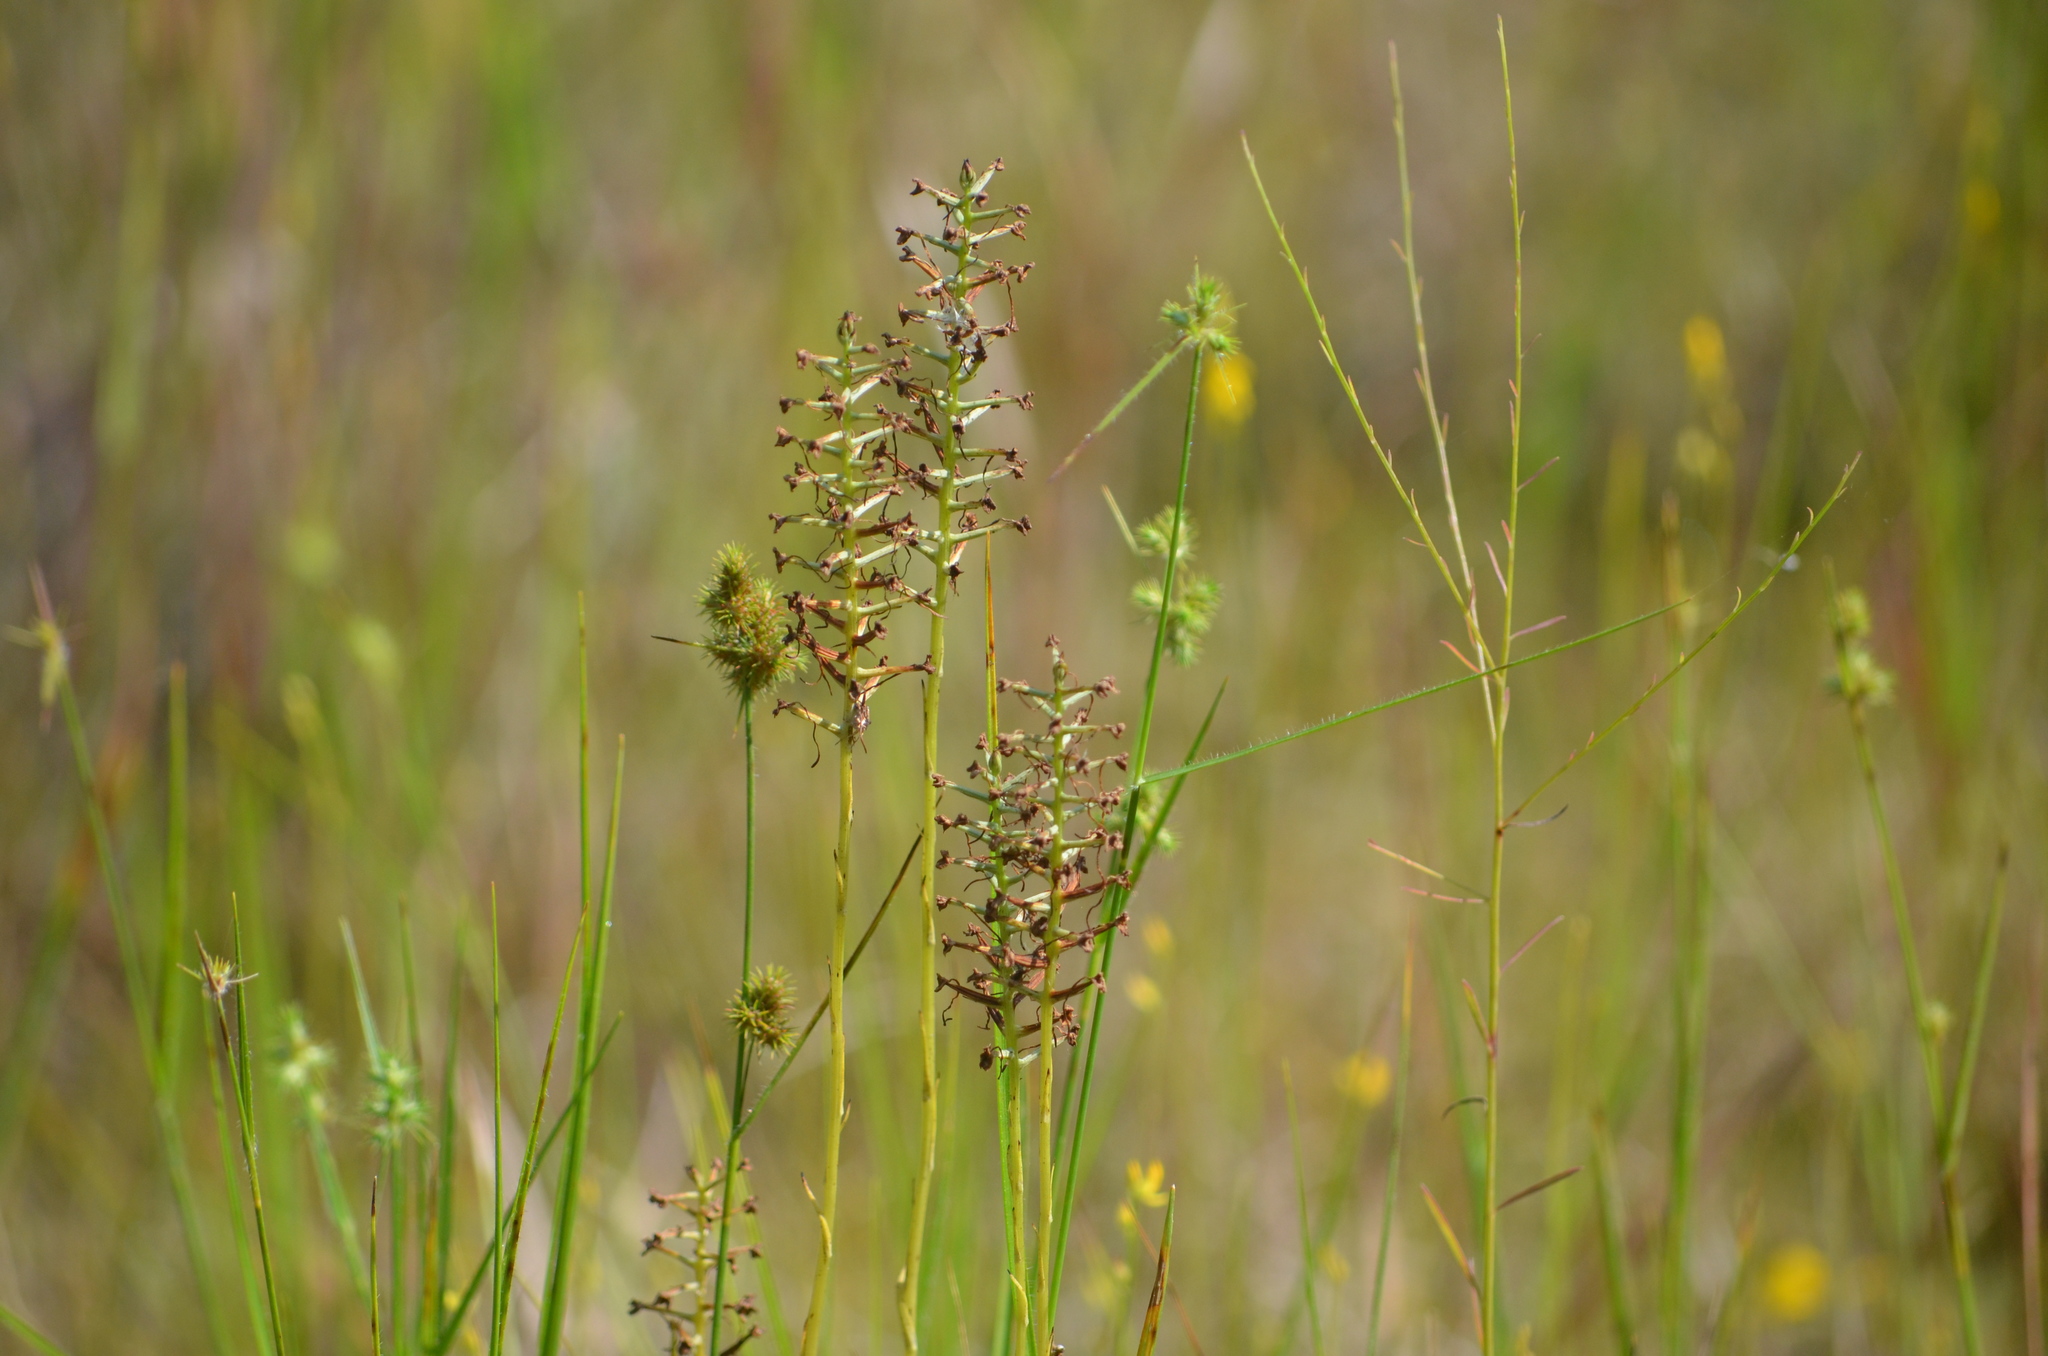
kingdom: Plantae
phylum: Tracheophyta
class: Liliopsida
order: Asparagales
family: Orchidaceae
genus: Platanthera
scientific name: Platanthera nivea
